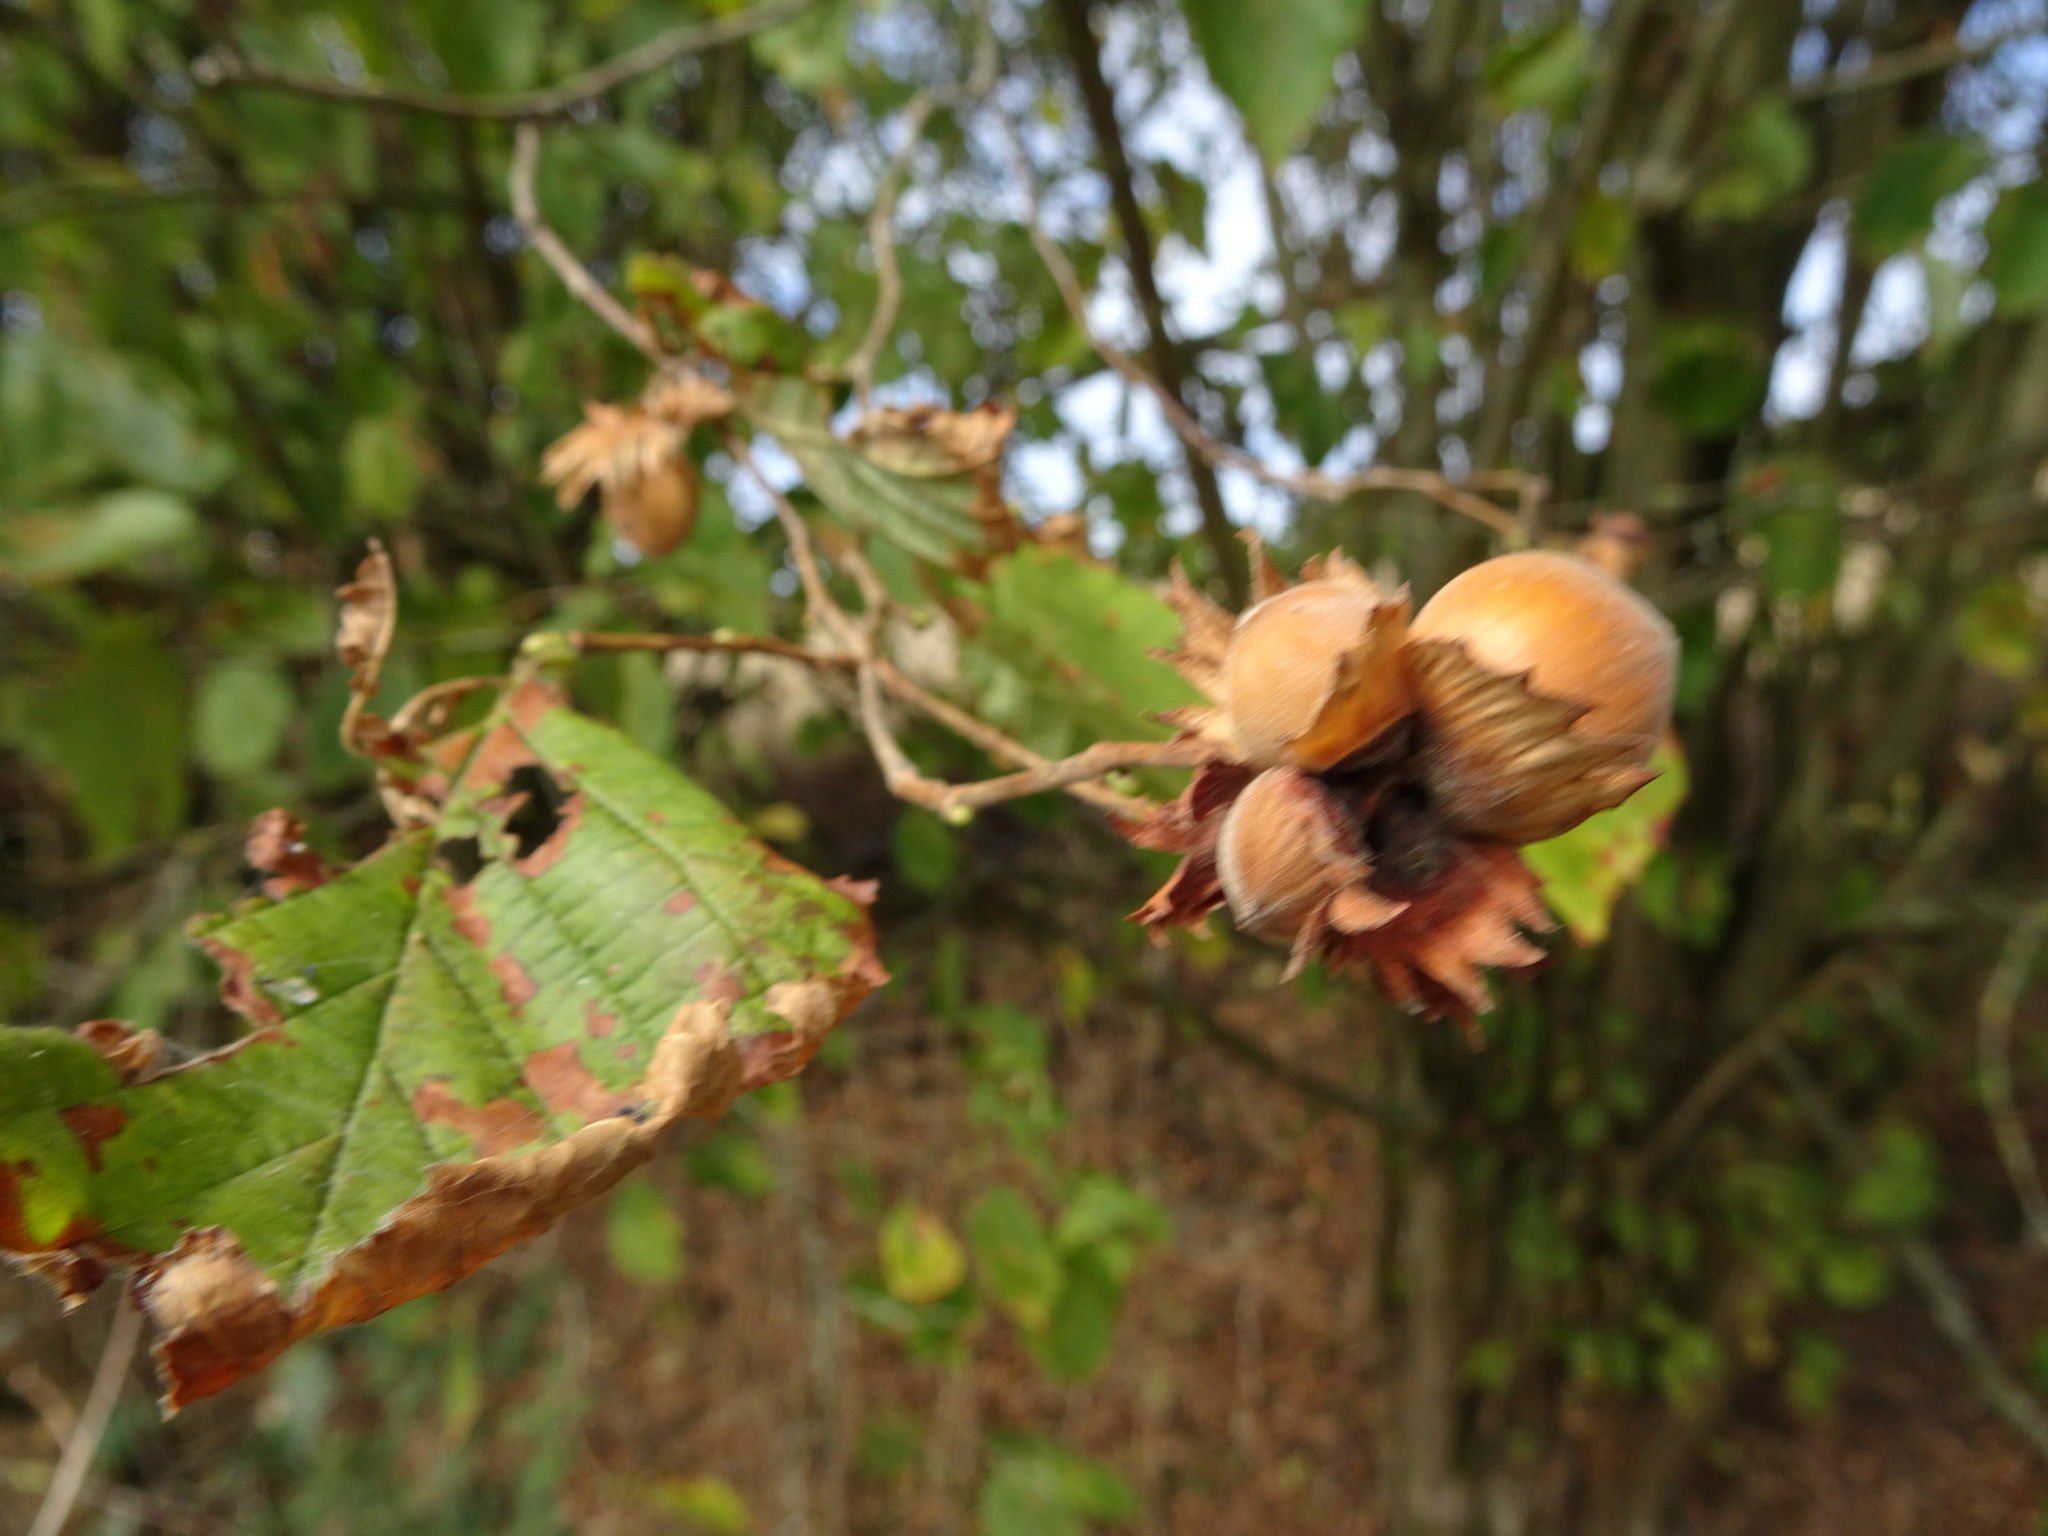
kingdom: Plantae
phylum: Tracheophyta
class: Magnoliopsida
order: Fagales
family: Betulaceae
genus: Corylus
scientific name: Corylus avellana
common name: European hazel
